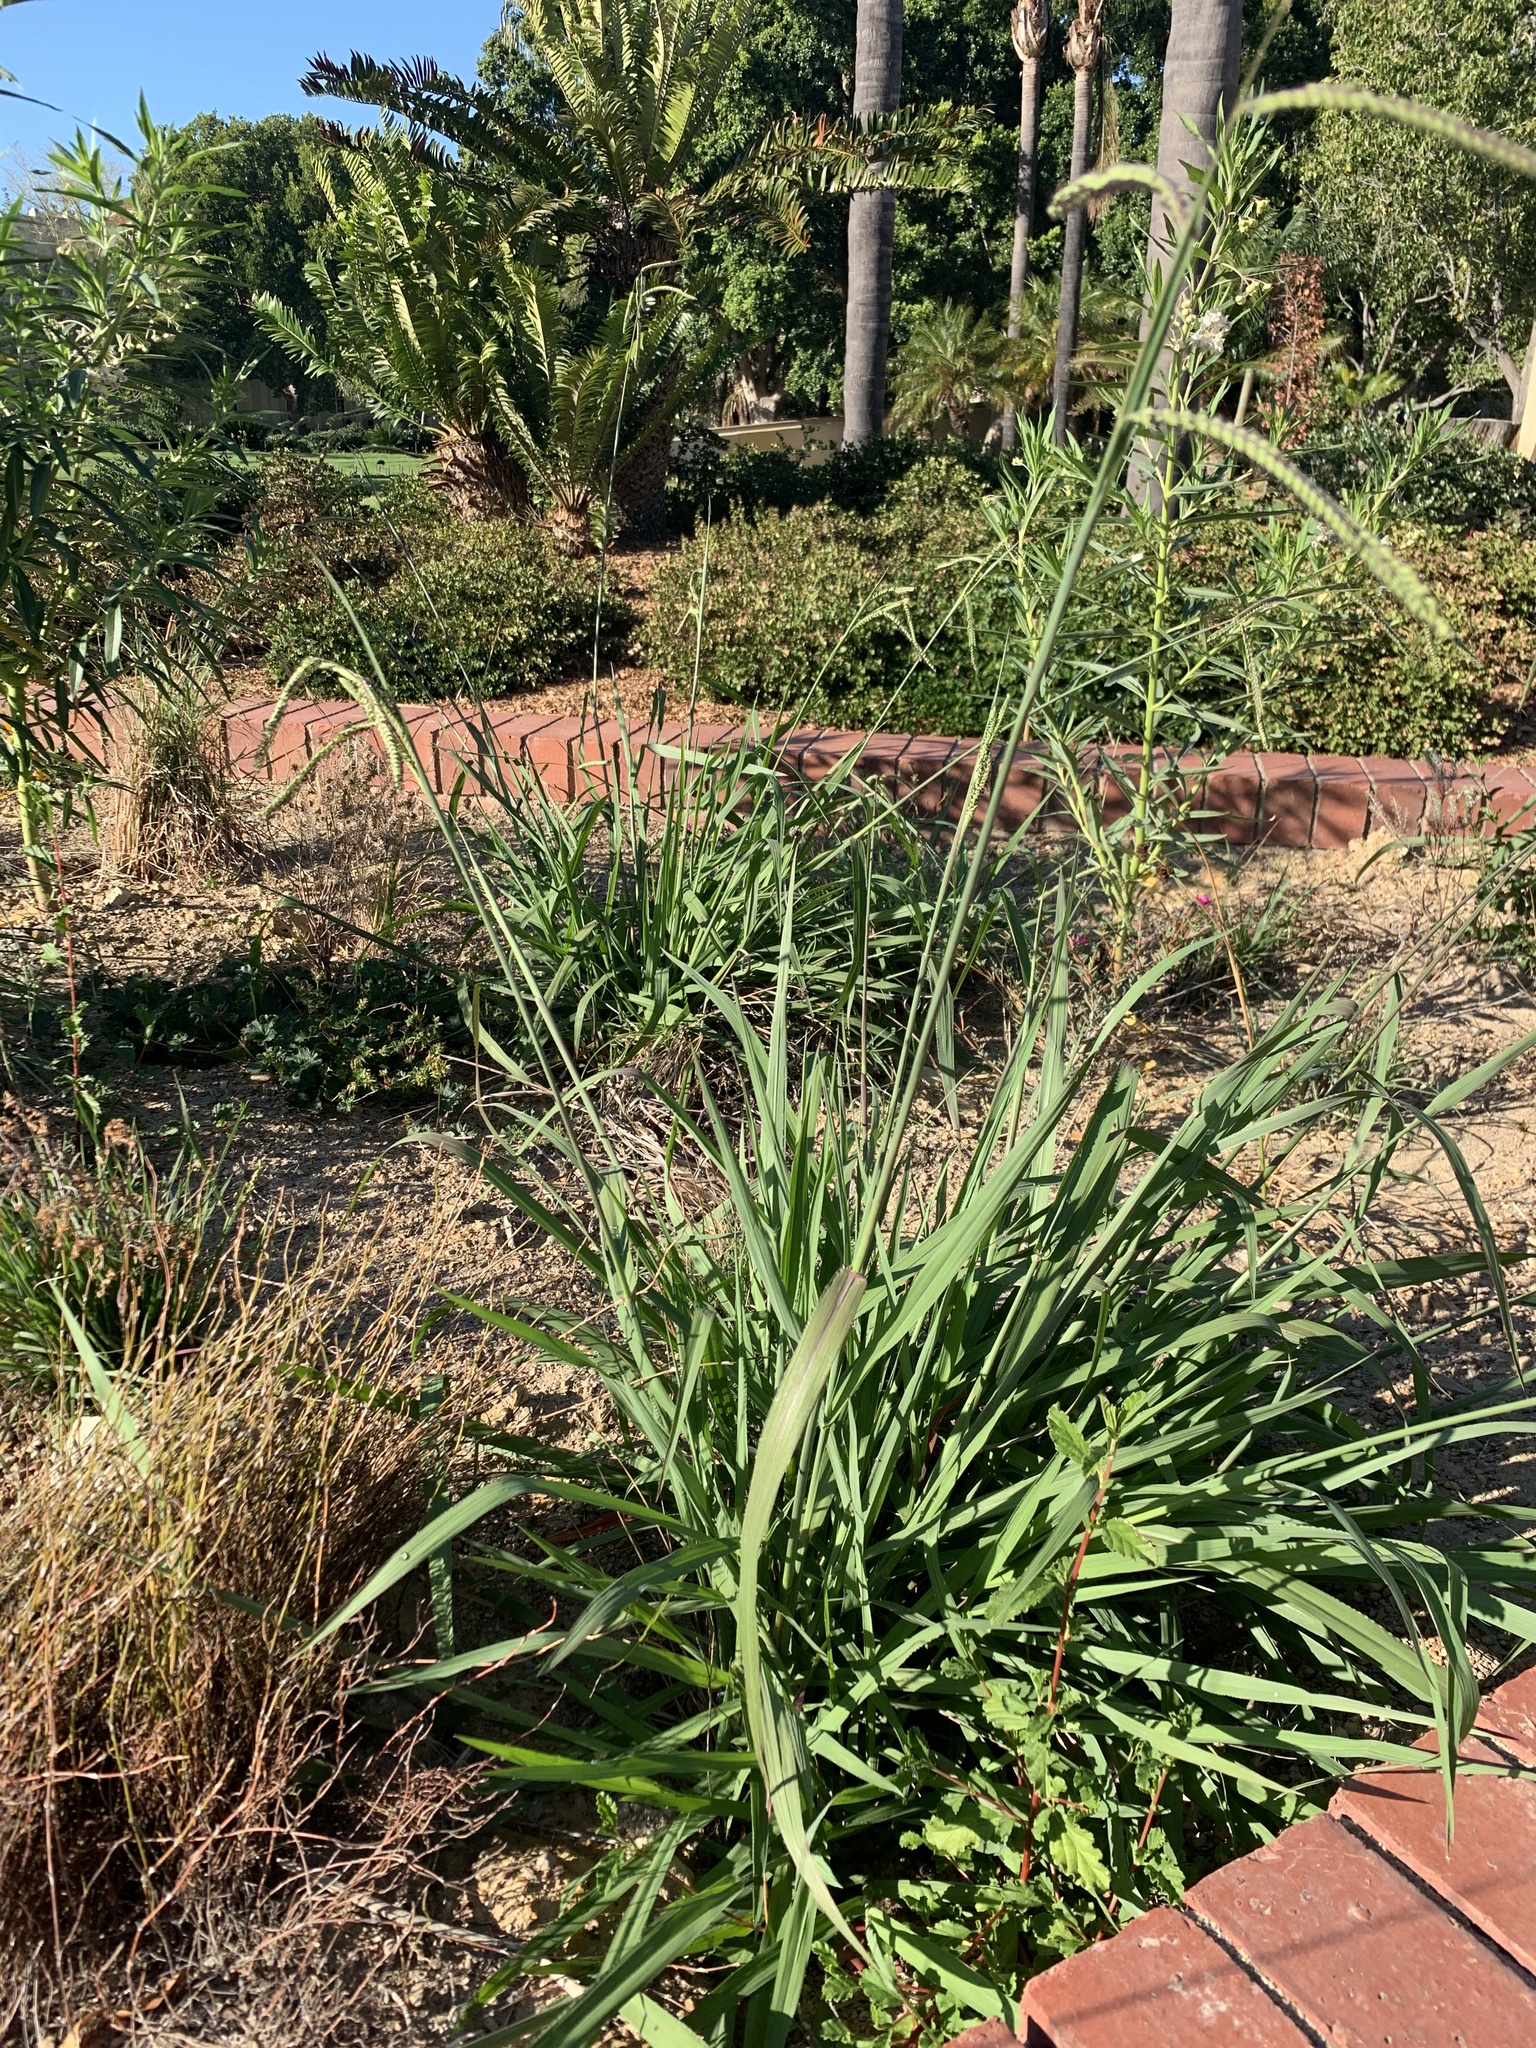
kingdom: Plantae
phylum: Tracheophyta
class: Liliopsida
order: Poales
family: Poaceae
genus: Paspalum
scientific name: Paspalum dilatatum
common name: Dallisgrass
